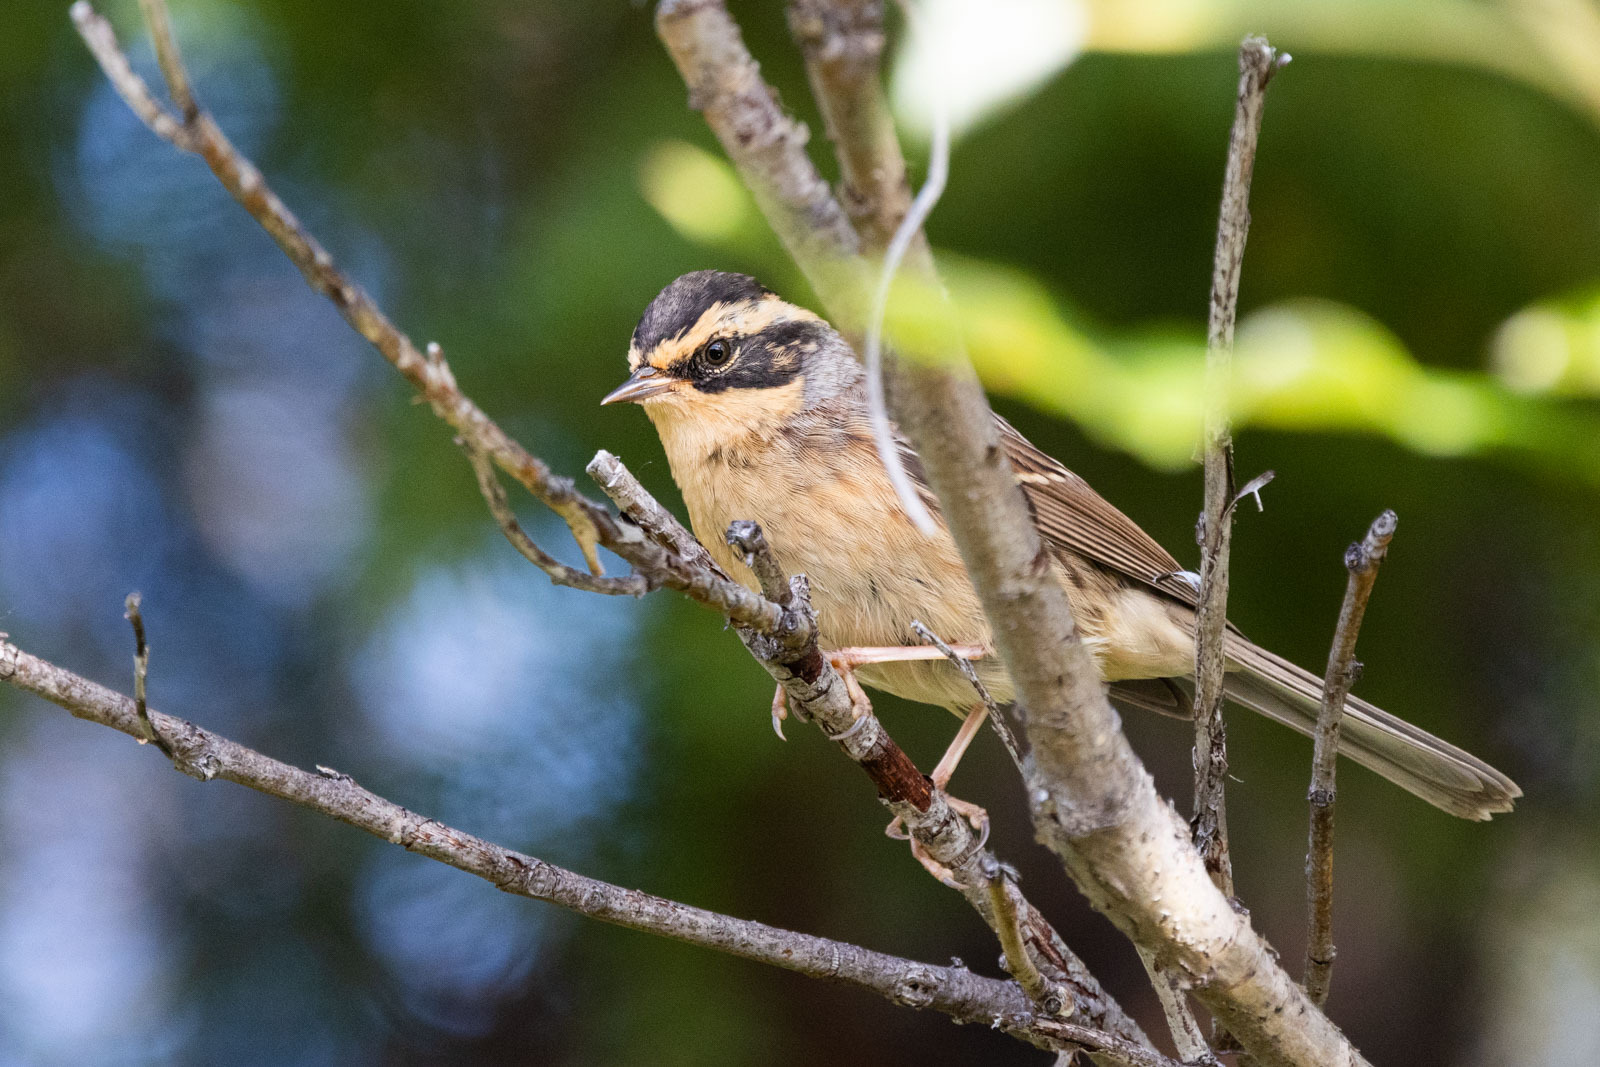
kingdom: Animalia
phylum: Chordata
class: Aves
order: Passeriformes
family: Prunellidae
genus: Prunella
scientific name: Prunella montanella
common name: Siberian accentor
